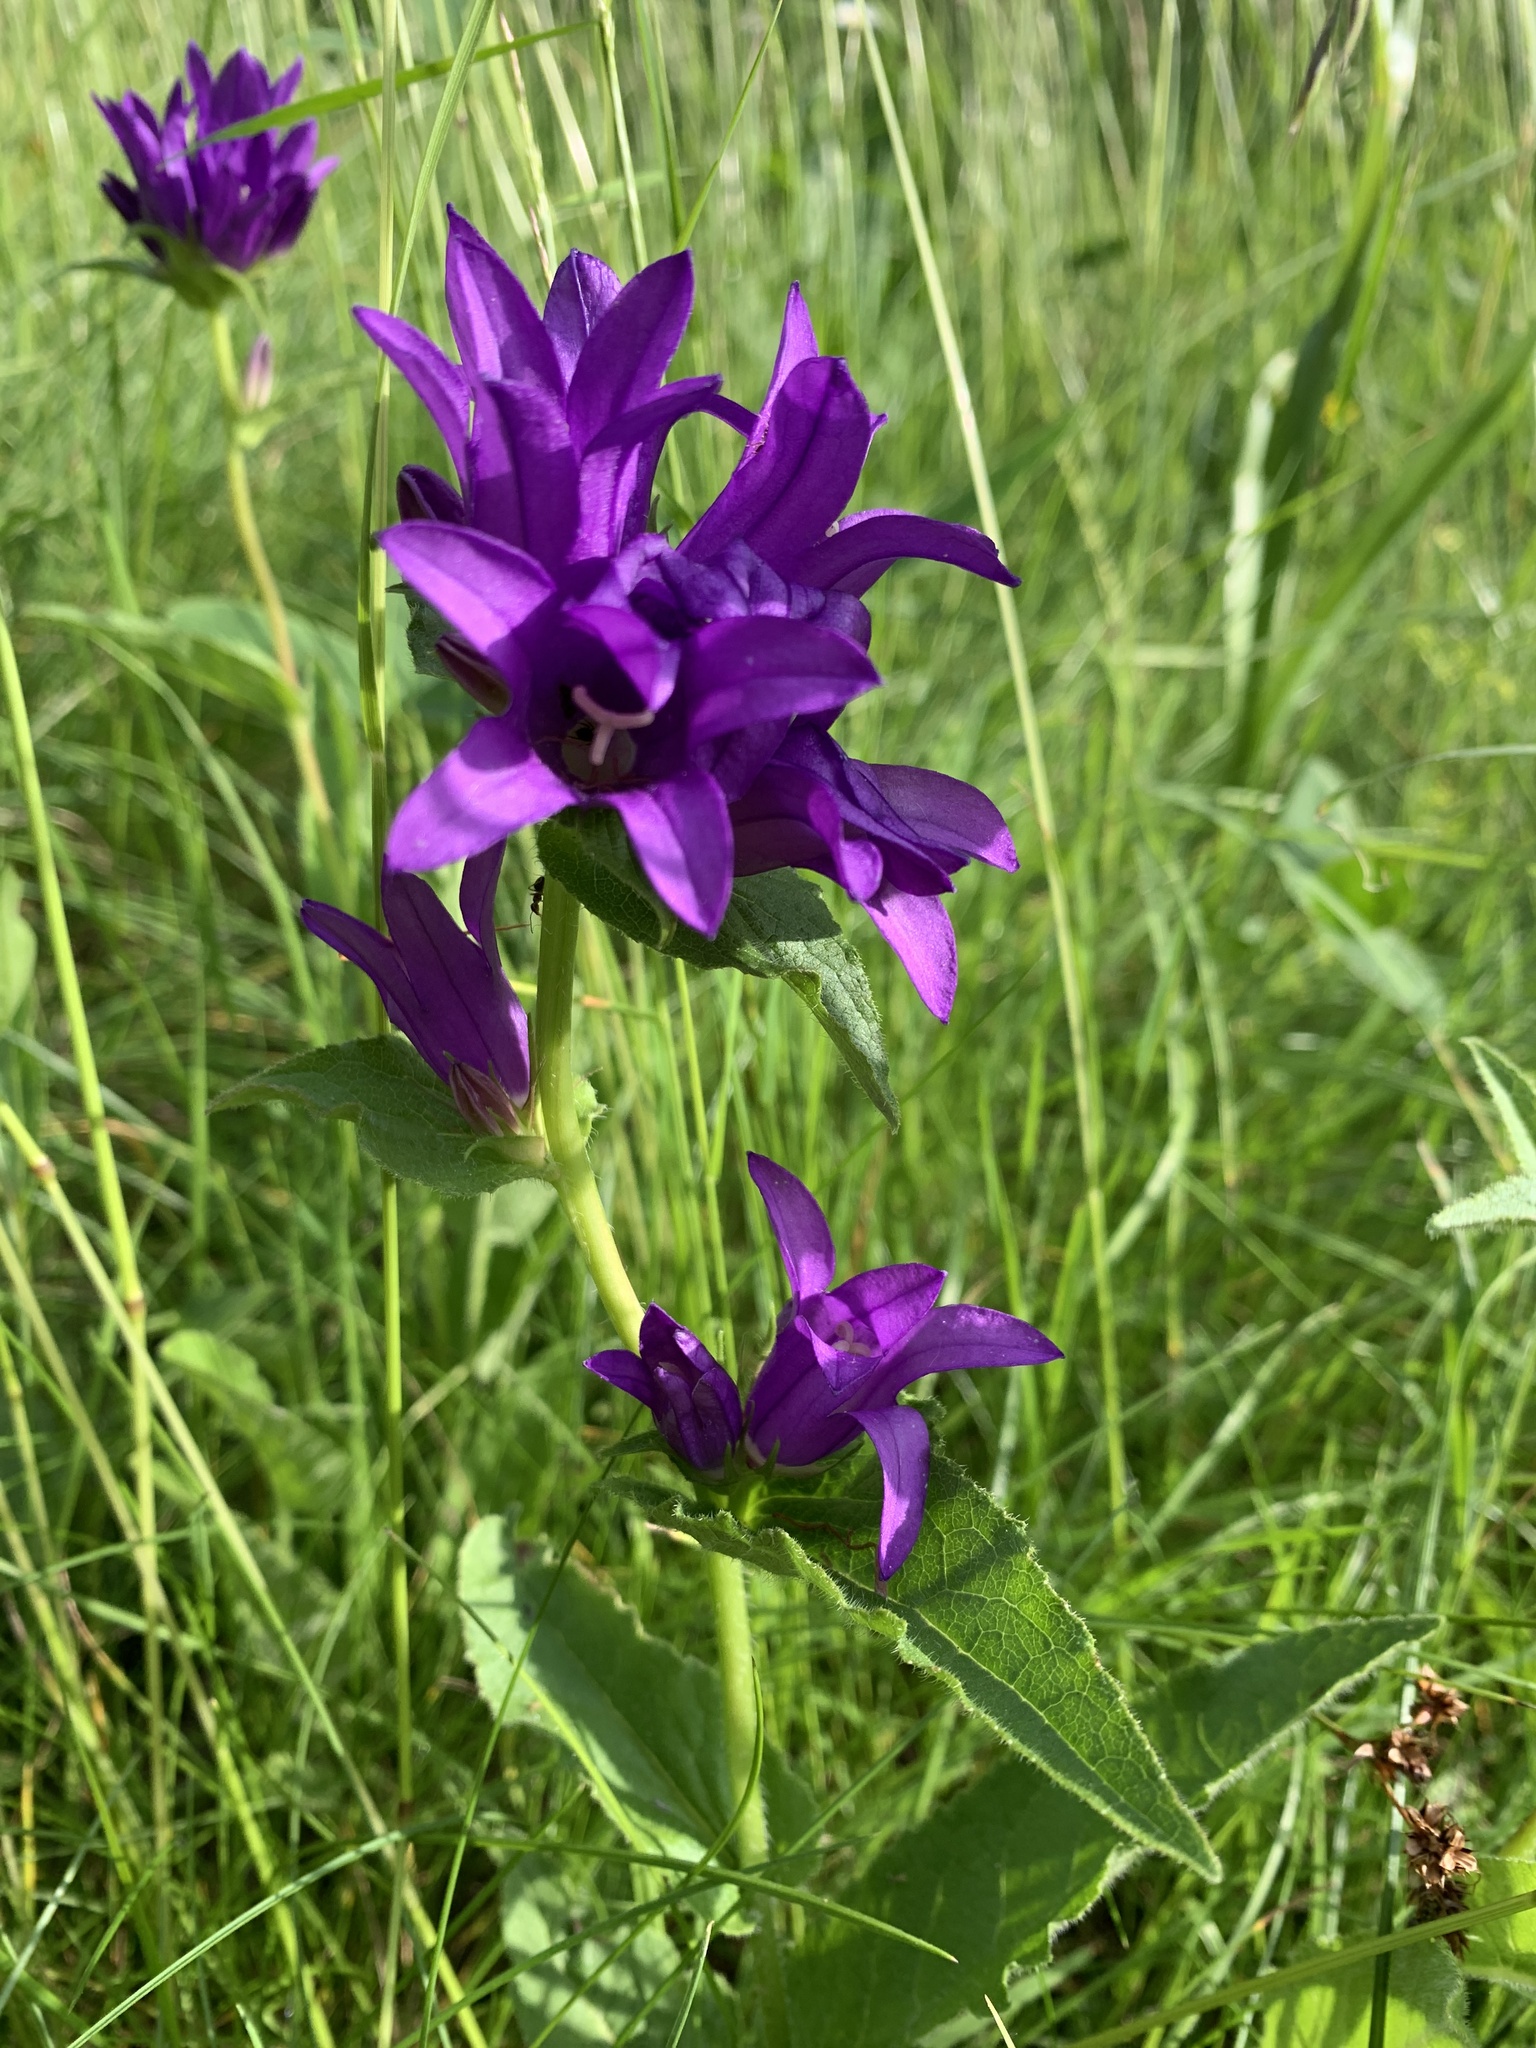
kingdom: Plantae
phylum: Tracheophyta
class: Magnoliopsida
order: Asterales
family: Campanulaceae
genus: Campanula
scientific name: Campanula glomerata
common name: Clustered bellflower
